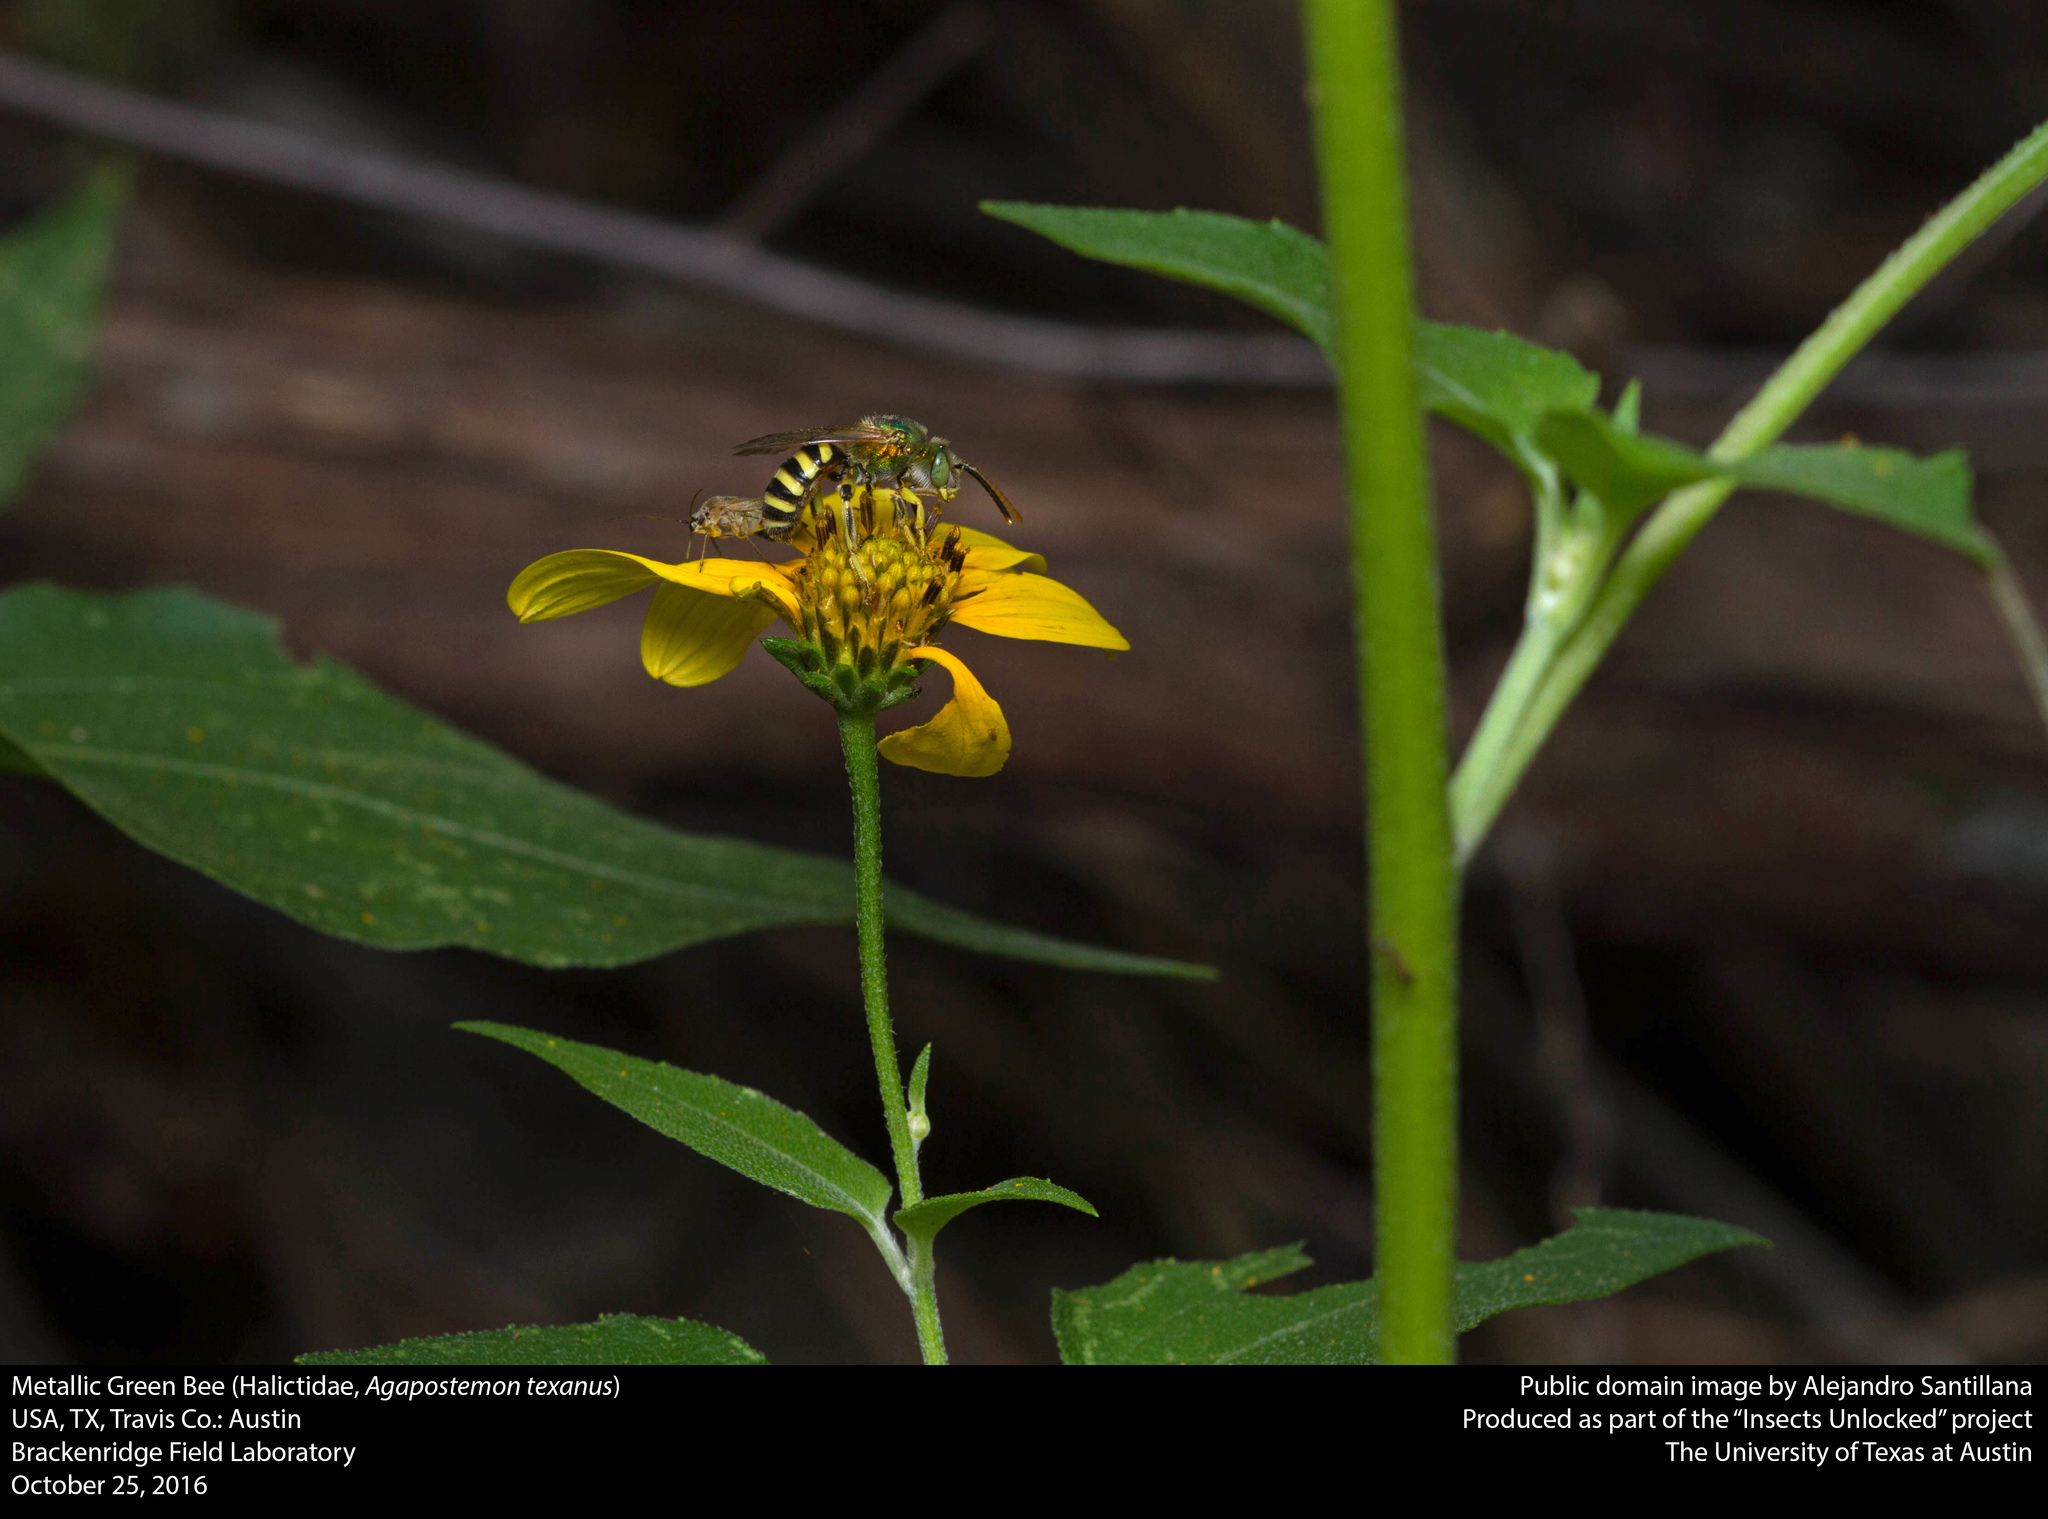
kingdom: Animalia
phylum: Arthropoda
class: Insecta
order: Hymenoptera
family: Halictidae
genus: Agapostemon
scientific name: Agapostemon texanus
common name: Texas striped sweat bee
